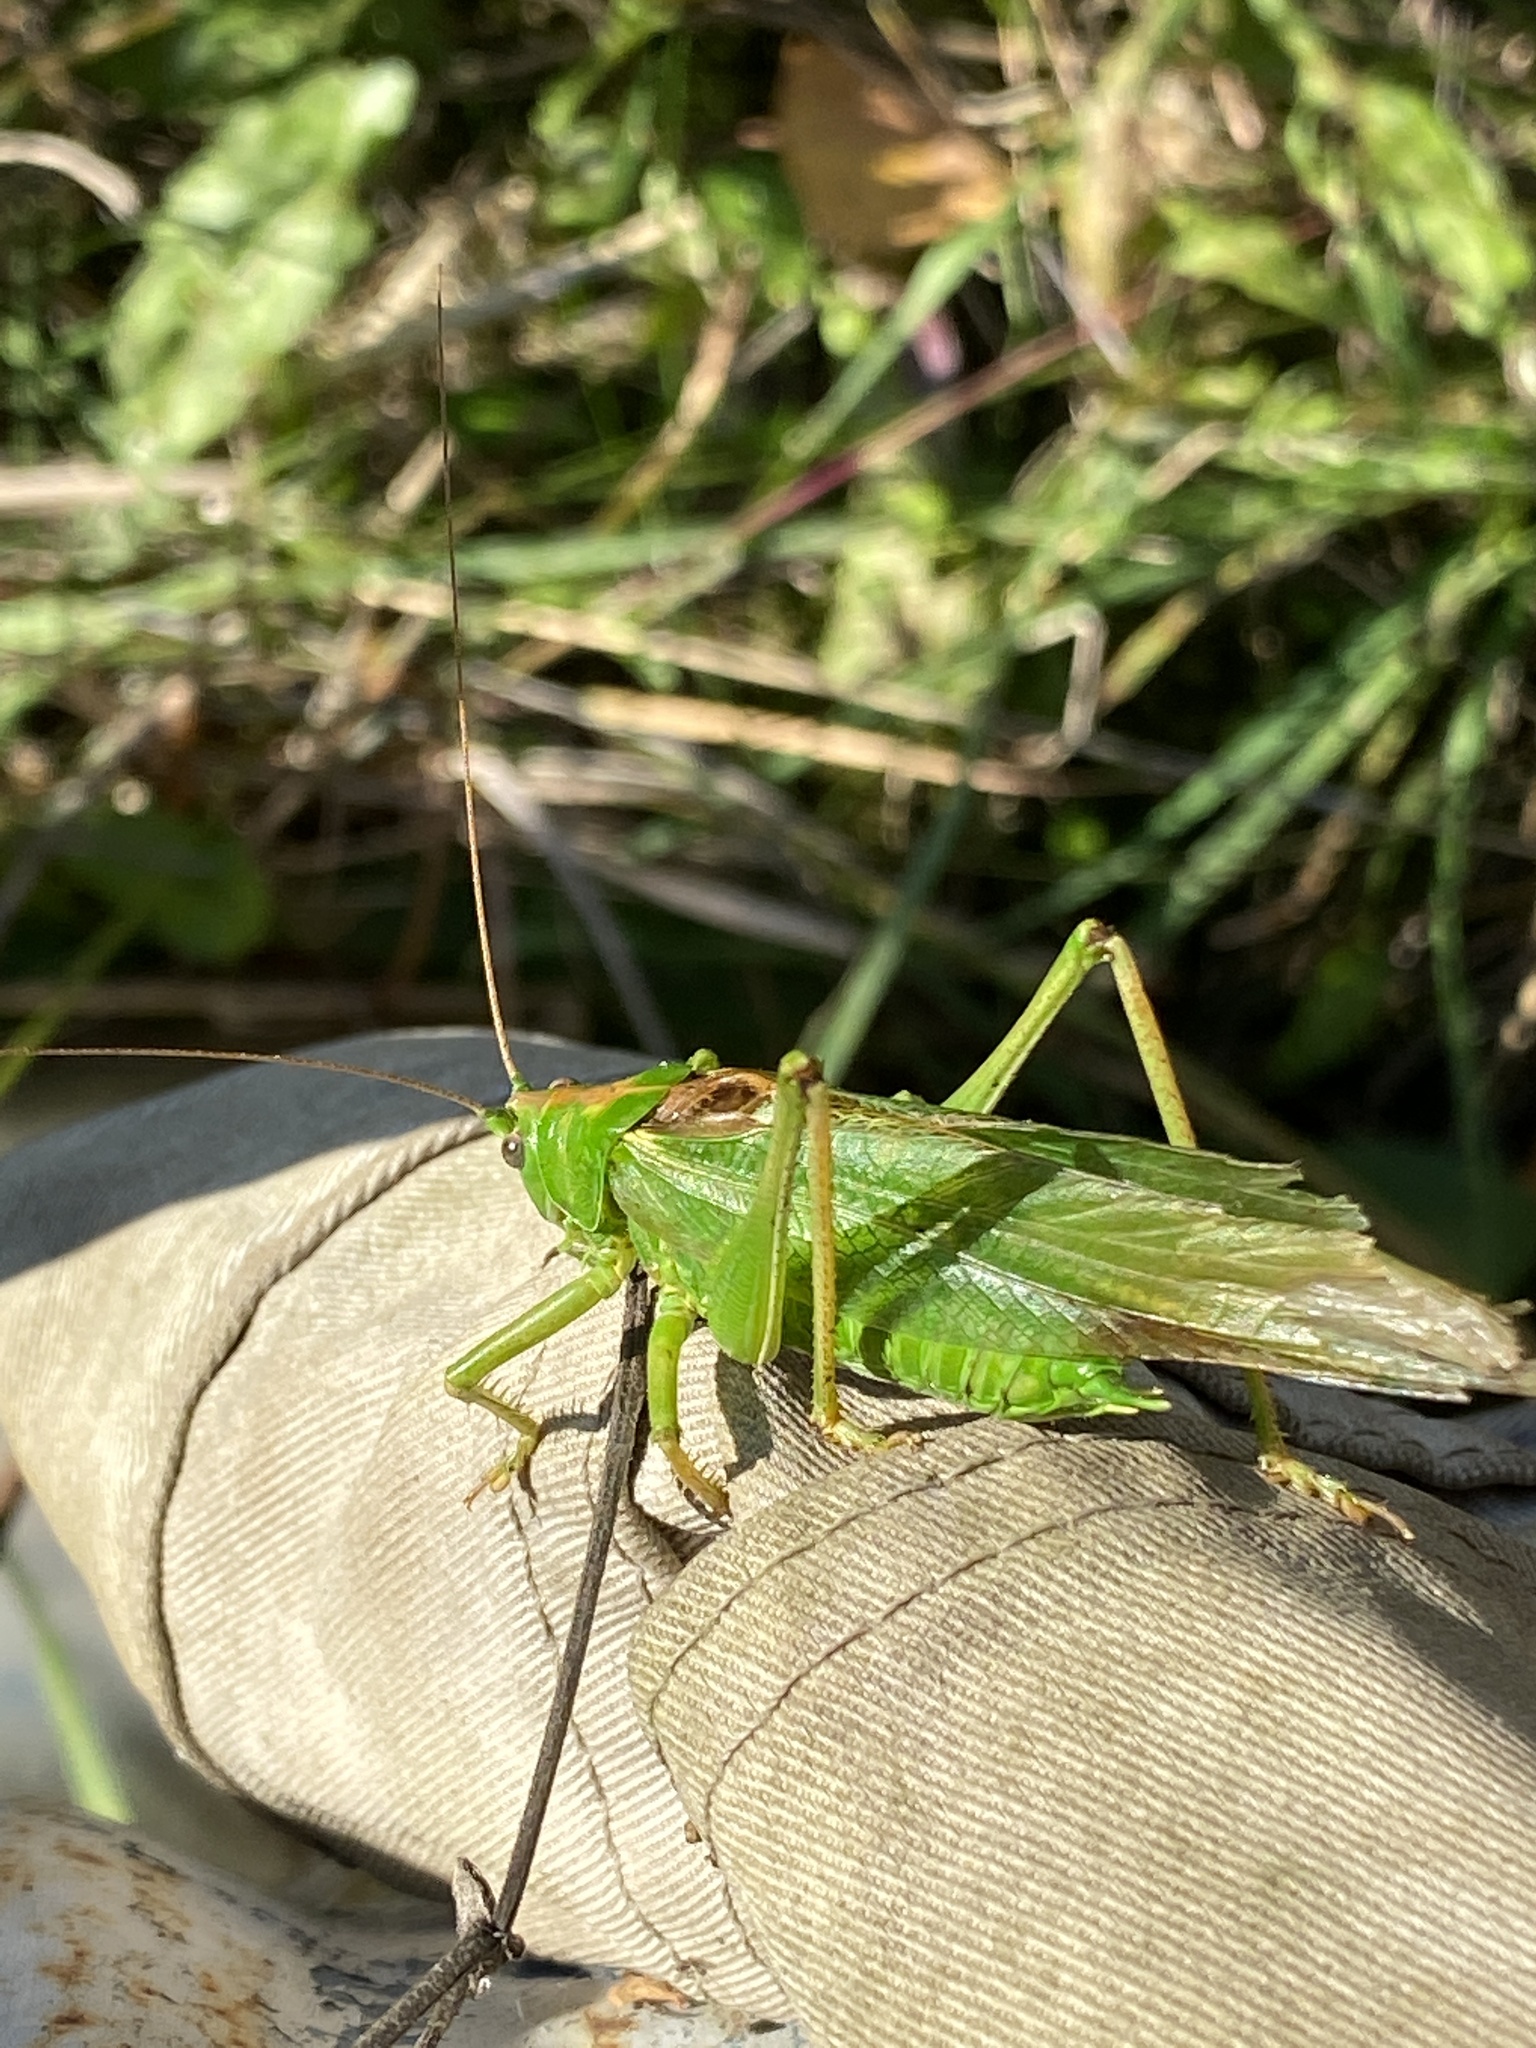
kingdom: Animalia
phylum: Arthropoda
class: Insecta
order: Orthoptera
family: Tettigoniidae
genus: Tettigonia
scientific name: Tettigonia viridissima
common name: Great green bush-cricket
